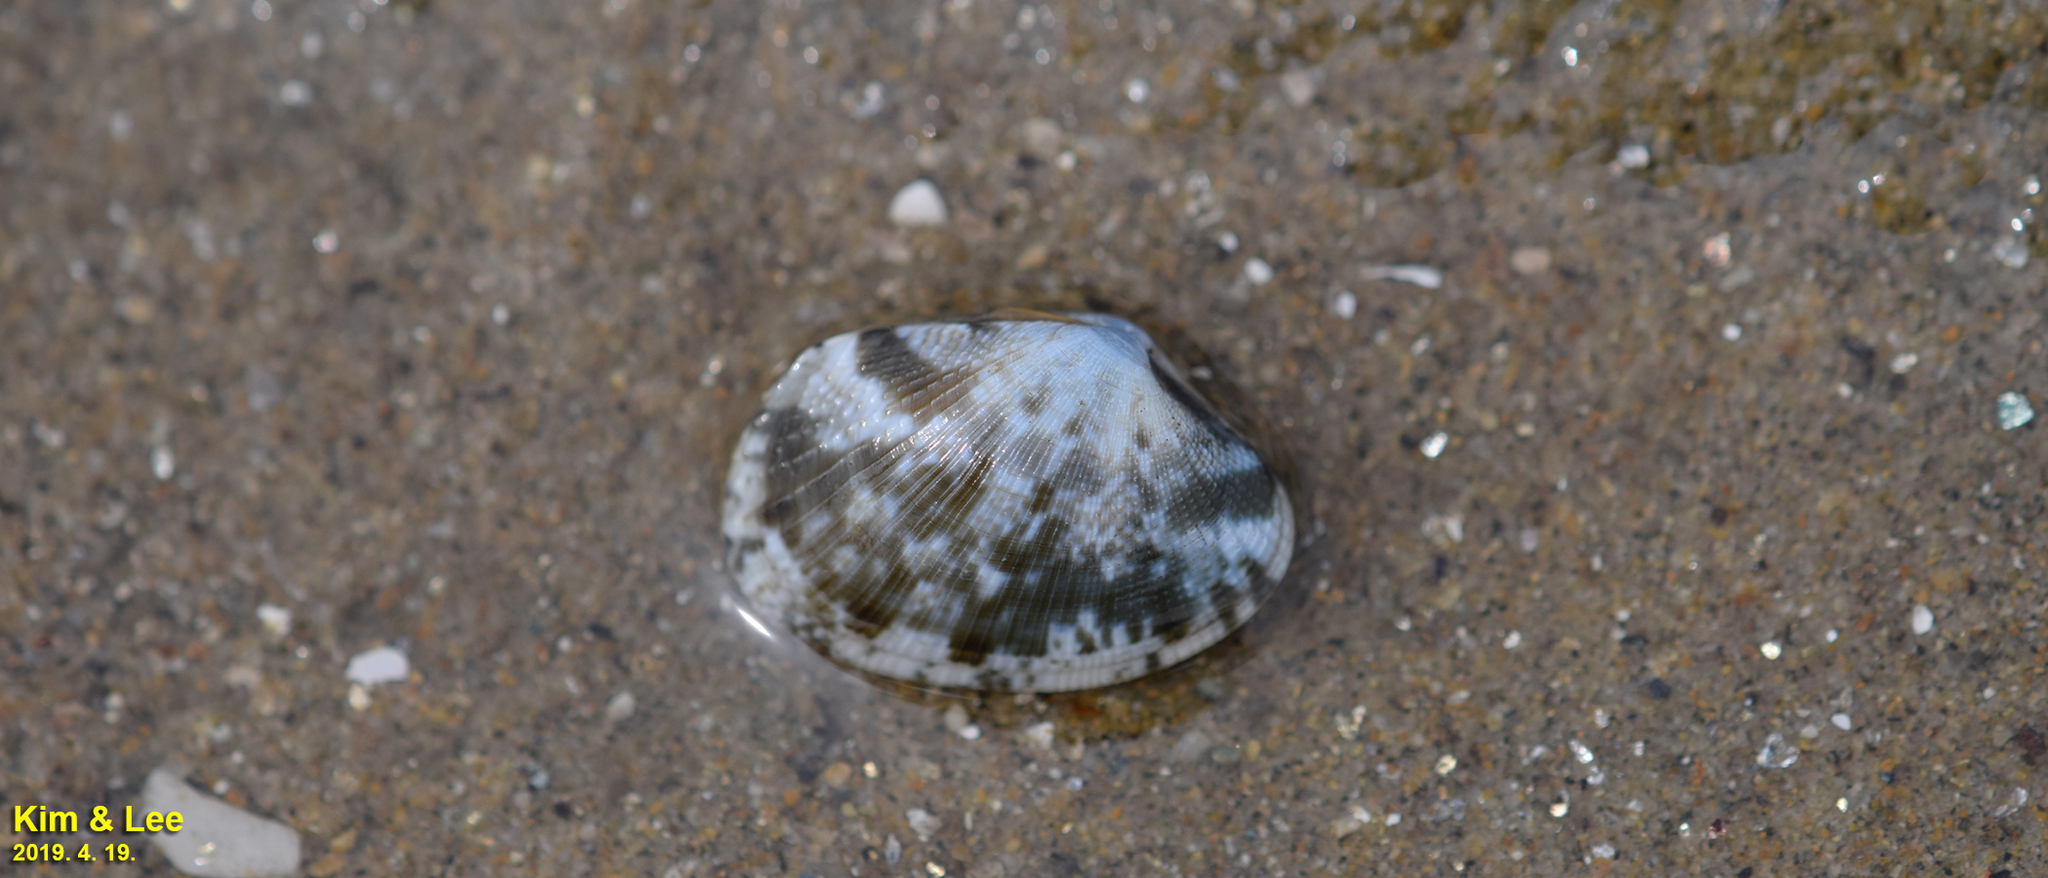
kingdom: Animalia
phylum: Mollusca
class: Bivalvia
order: Venerida
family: Veneridae
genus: Ruditapes
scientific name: Ruditapes philippinarum
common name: Manila clam
